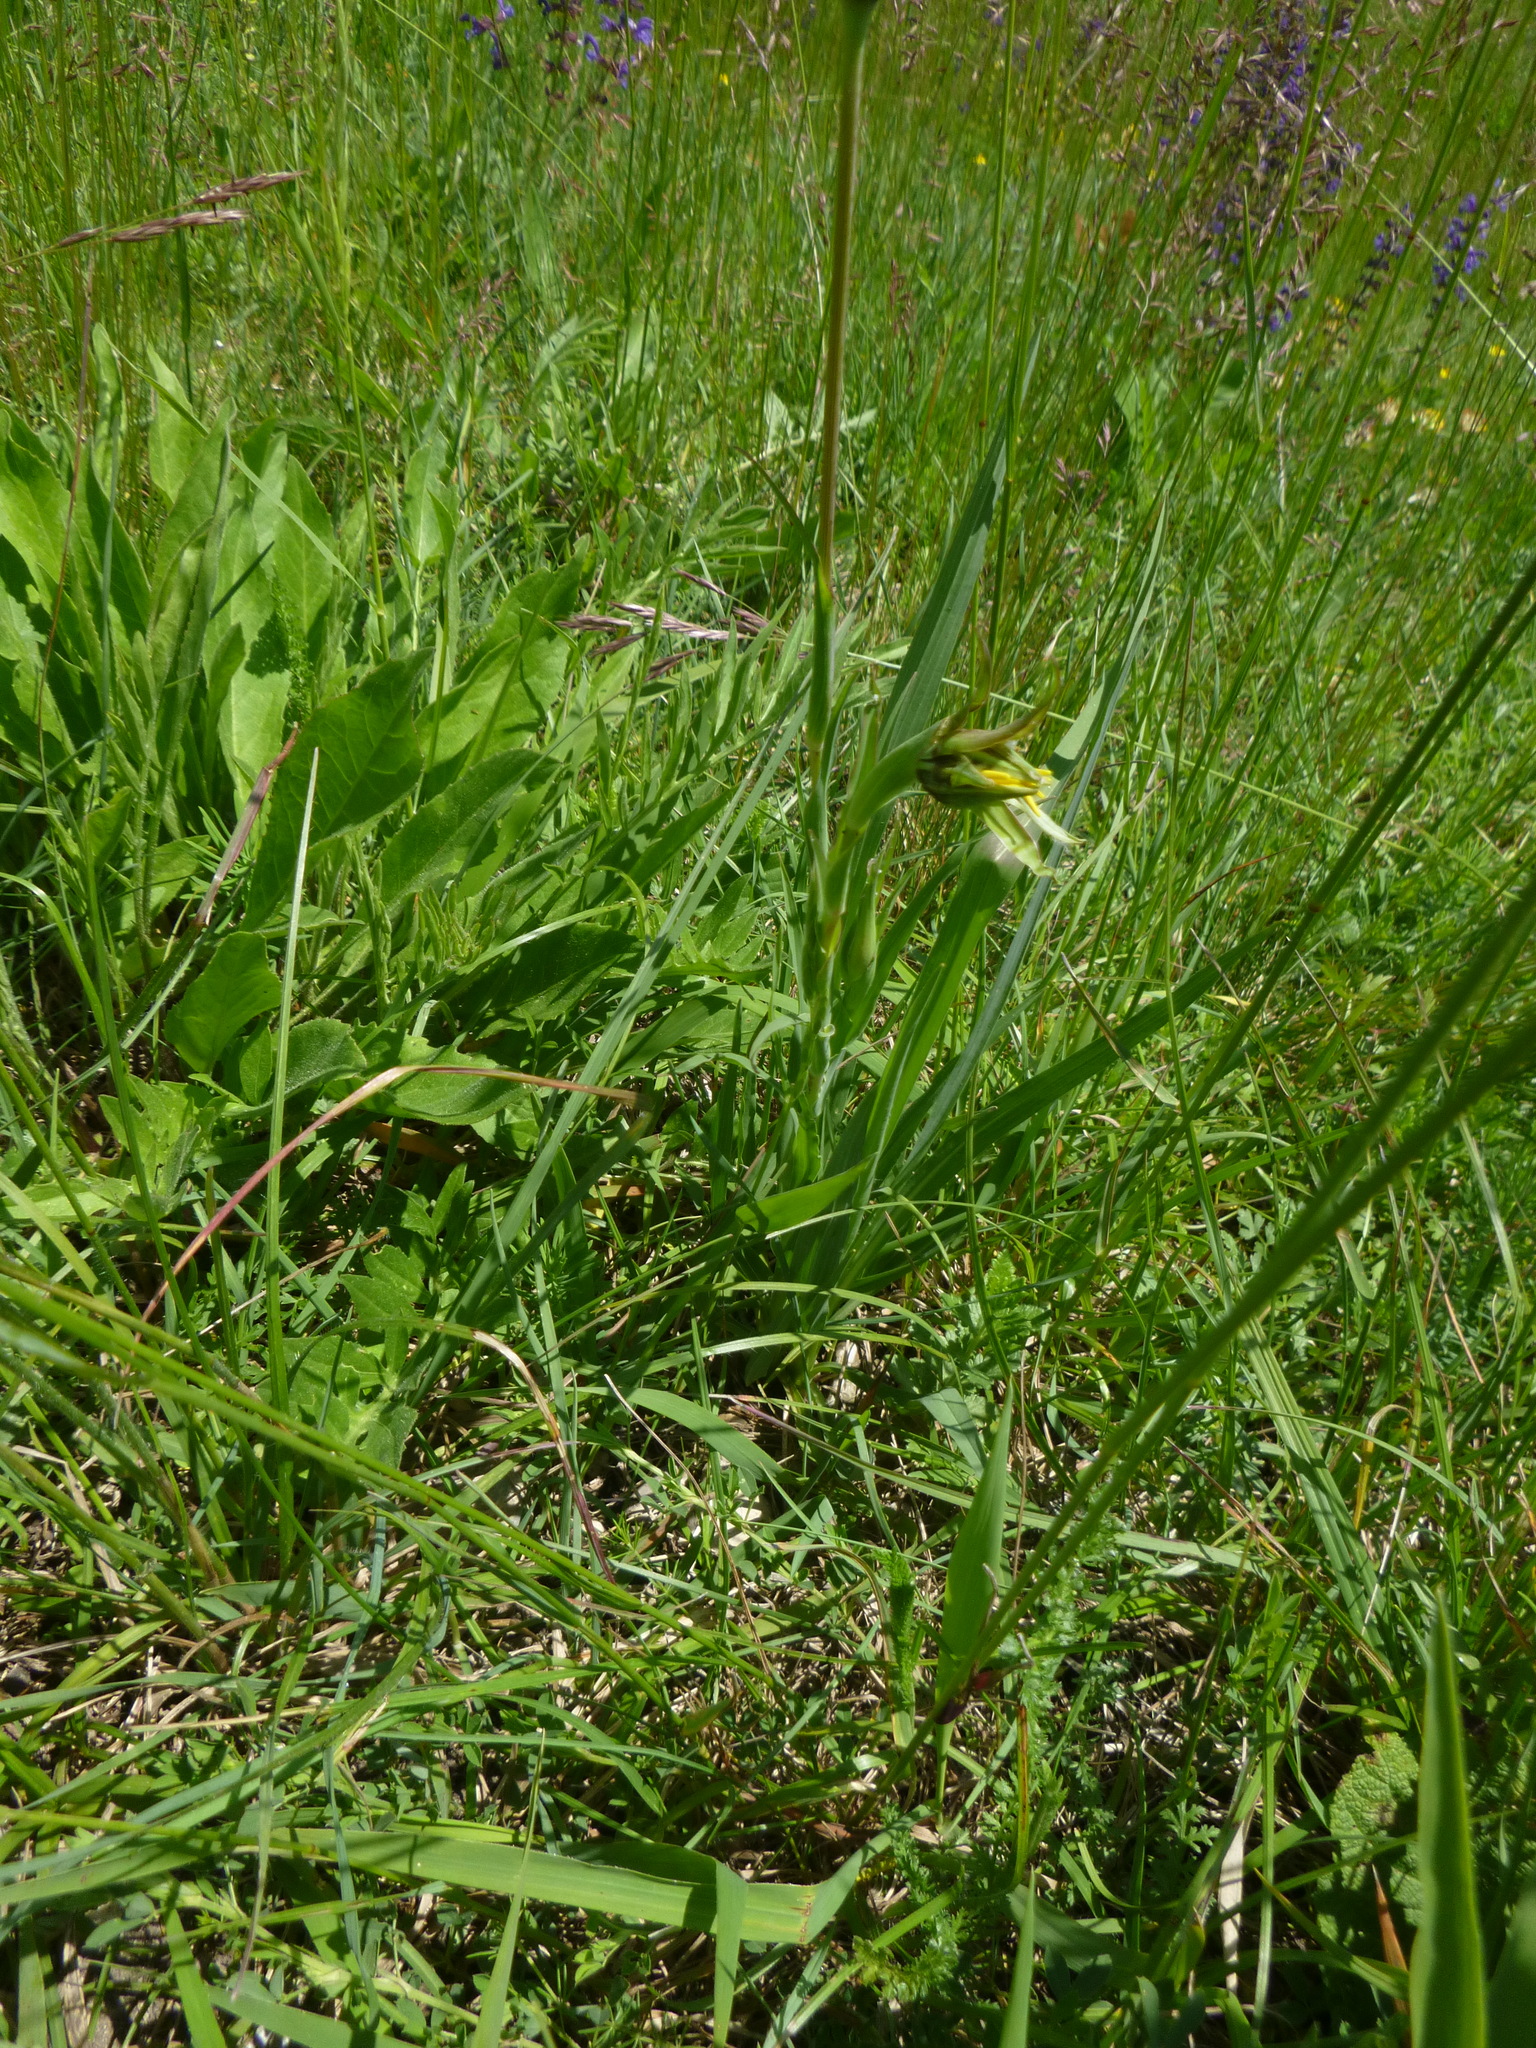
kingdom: Plantae
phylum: Tracheophyta
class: Magnoliopsida
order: Asterales
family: Asteraceae
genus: Tragopogon
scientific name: Tragopogon orientalis
